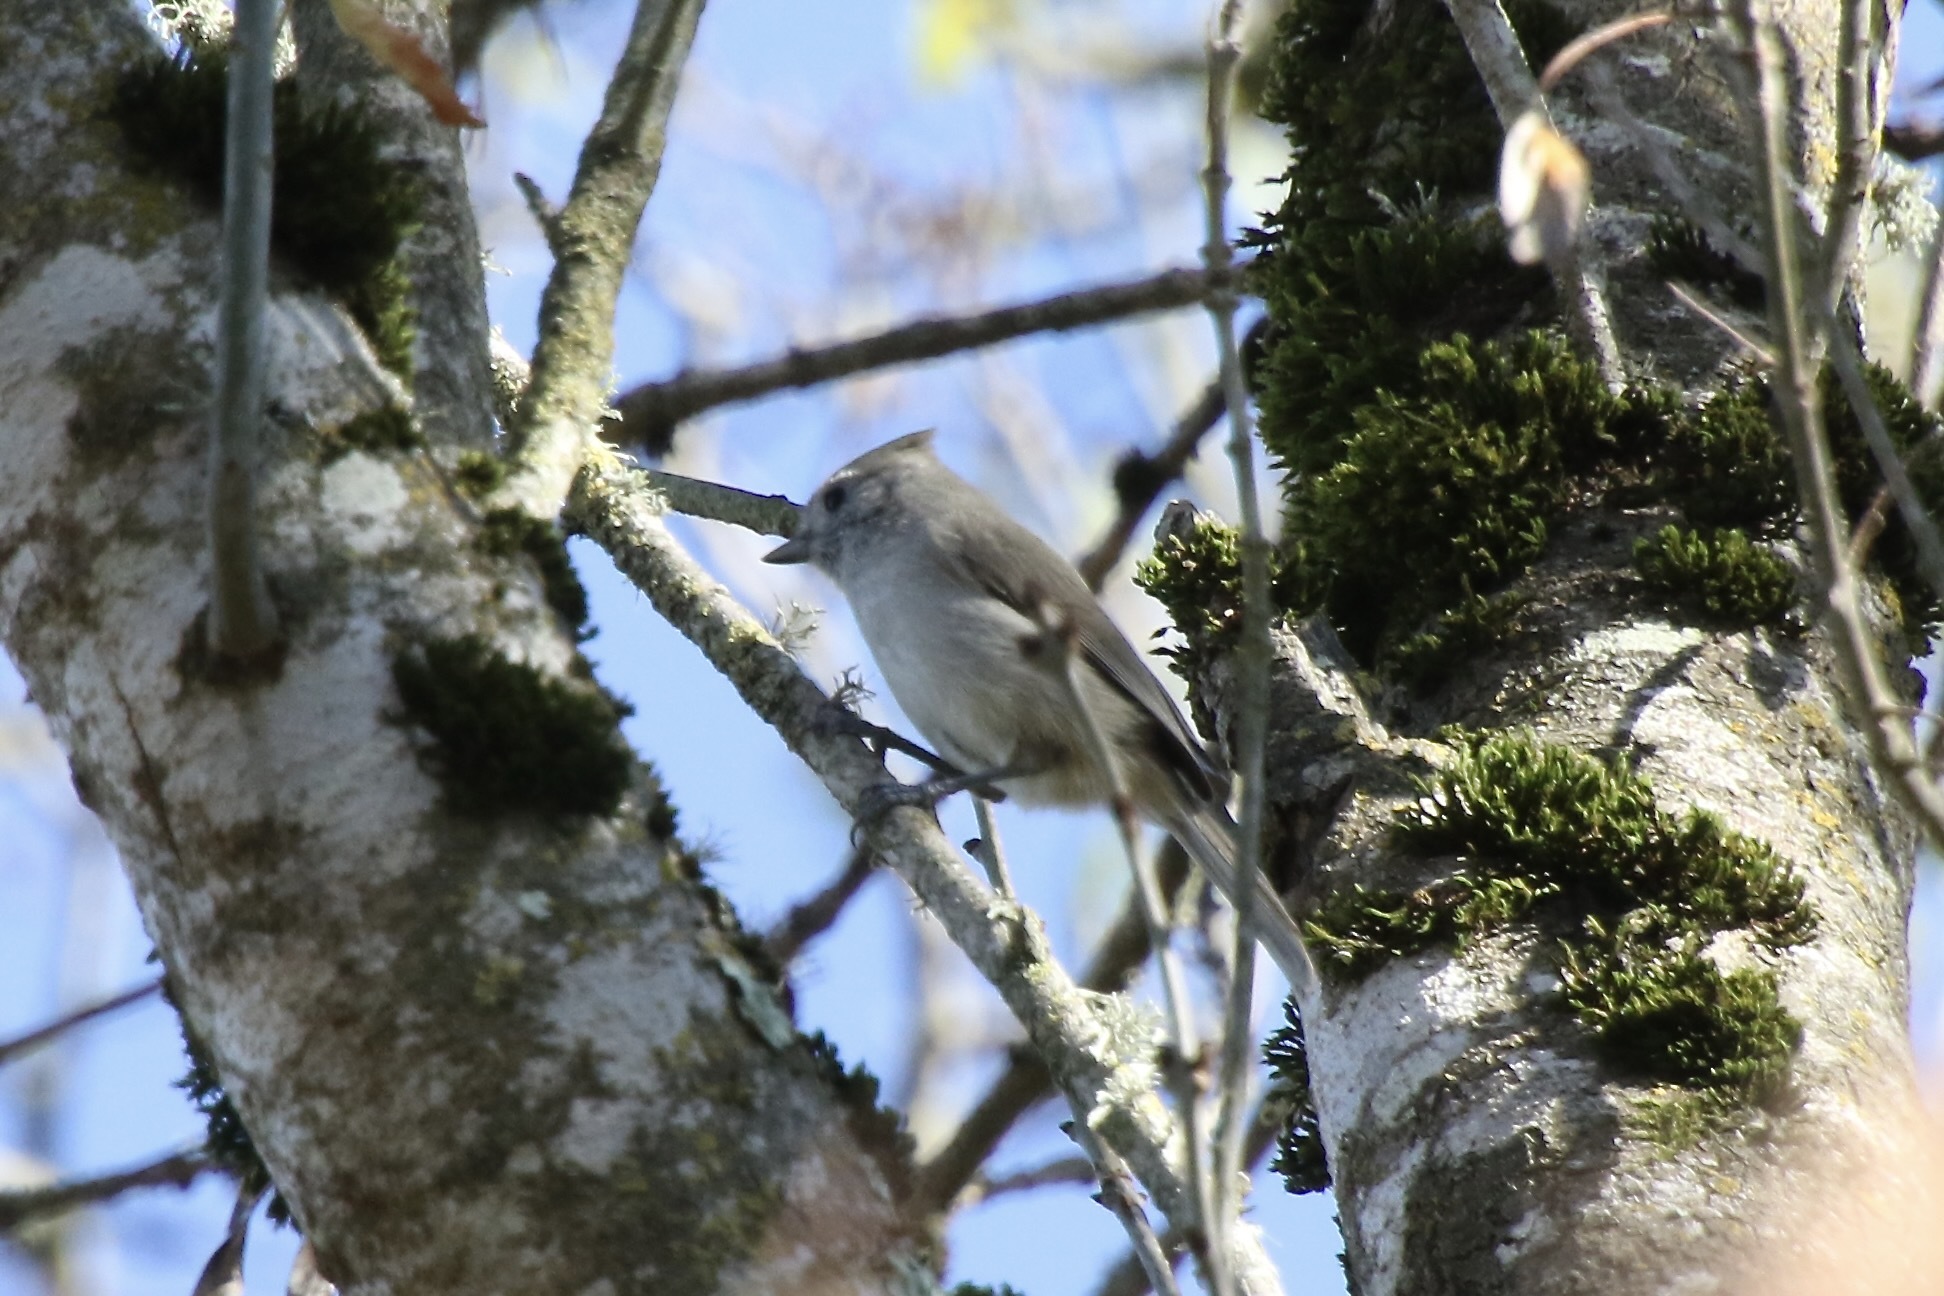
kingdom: Animalia
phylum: Chordata
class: Aves
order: Passeriformes
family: Paridae
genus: Baeolophus
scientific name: Baeolophus inornatus
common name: Oak titmouse
